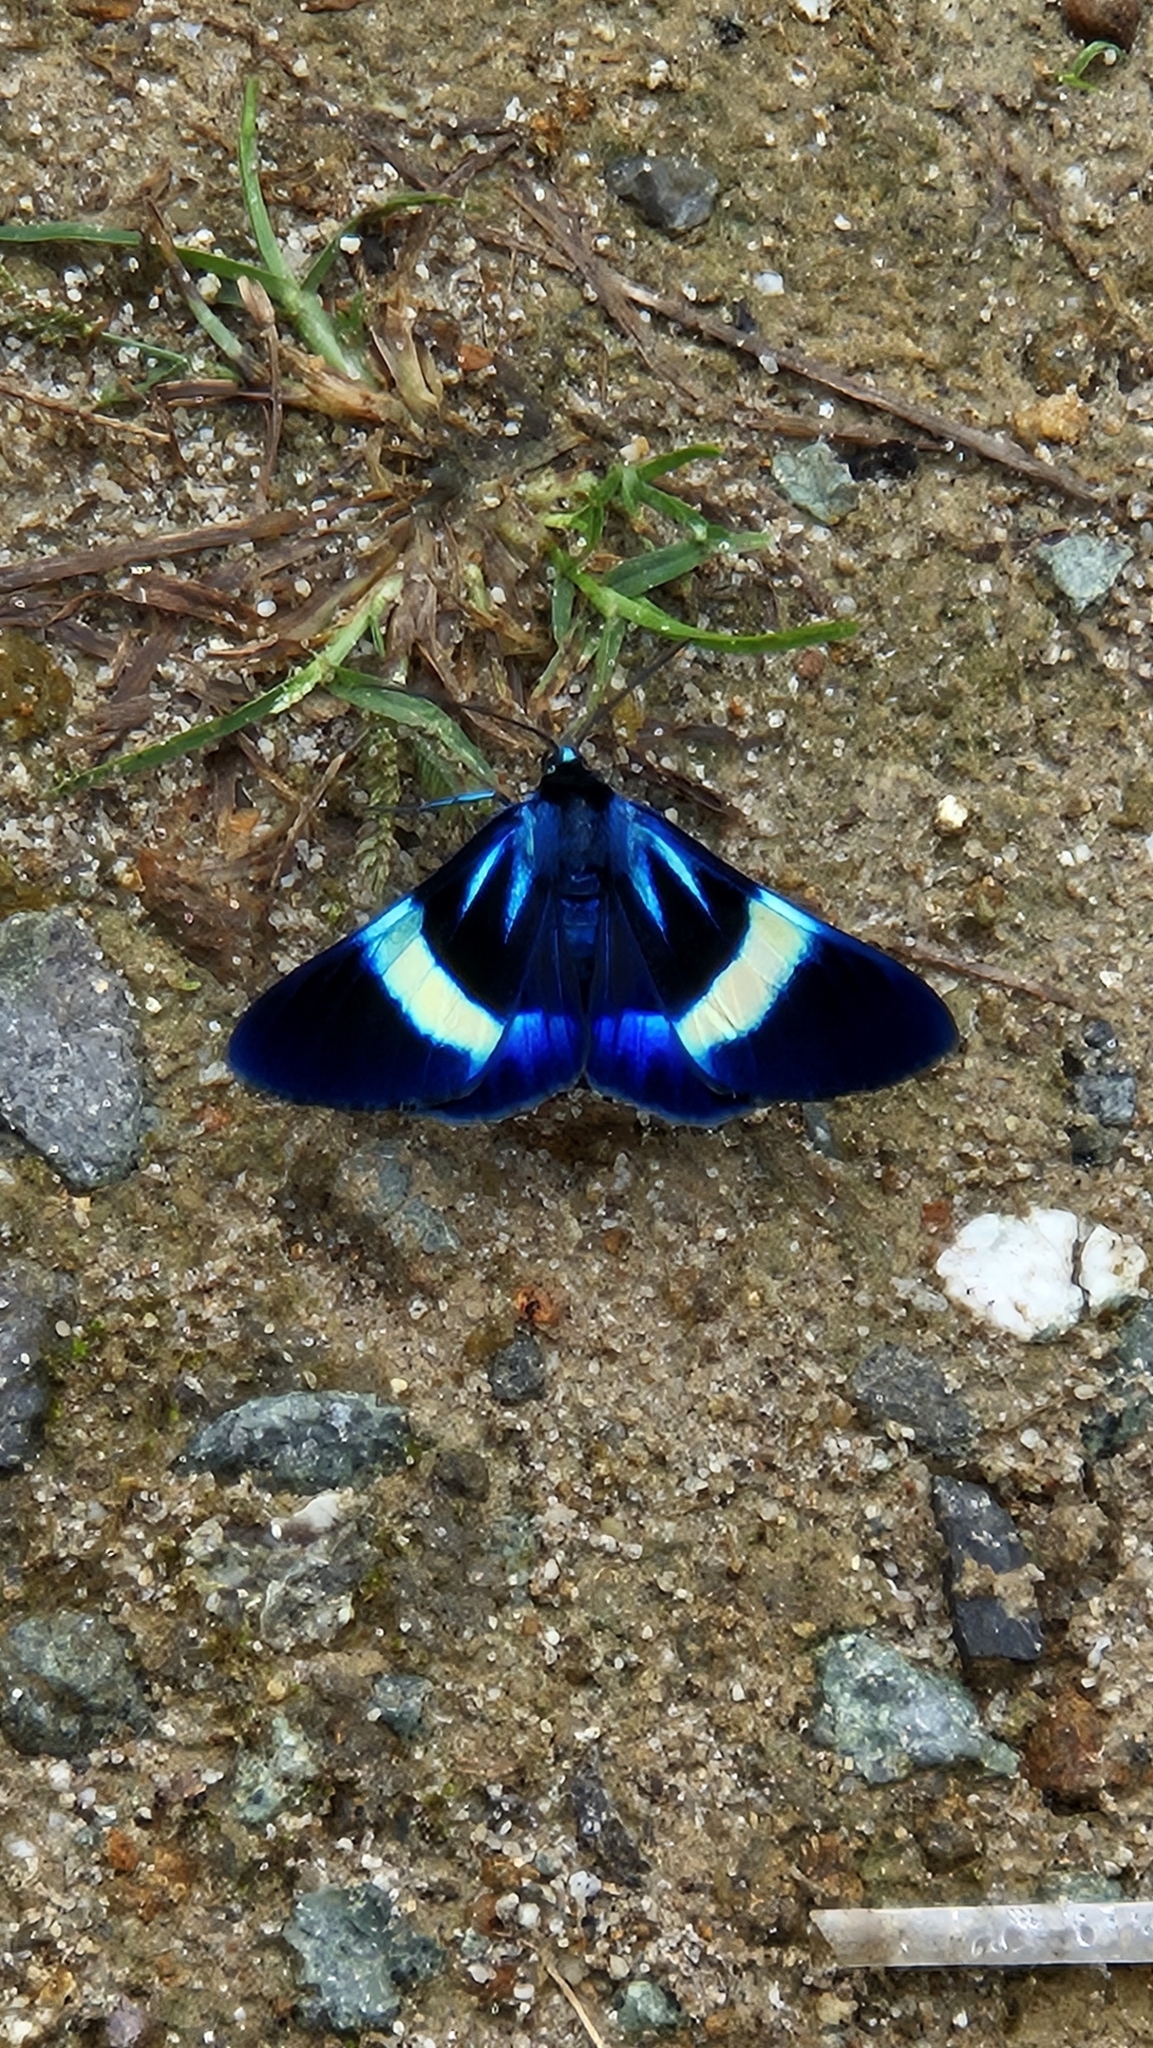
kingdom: Animalia
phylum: Arthropoda
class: Insecta
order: Lepidoptera
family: Geometridae
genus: Milionia
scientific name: Milionia
